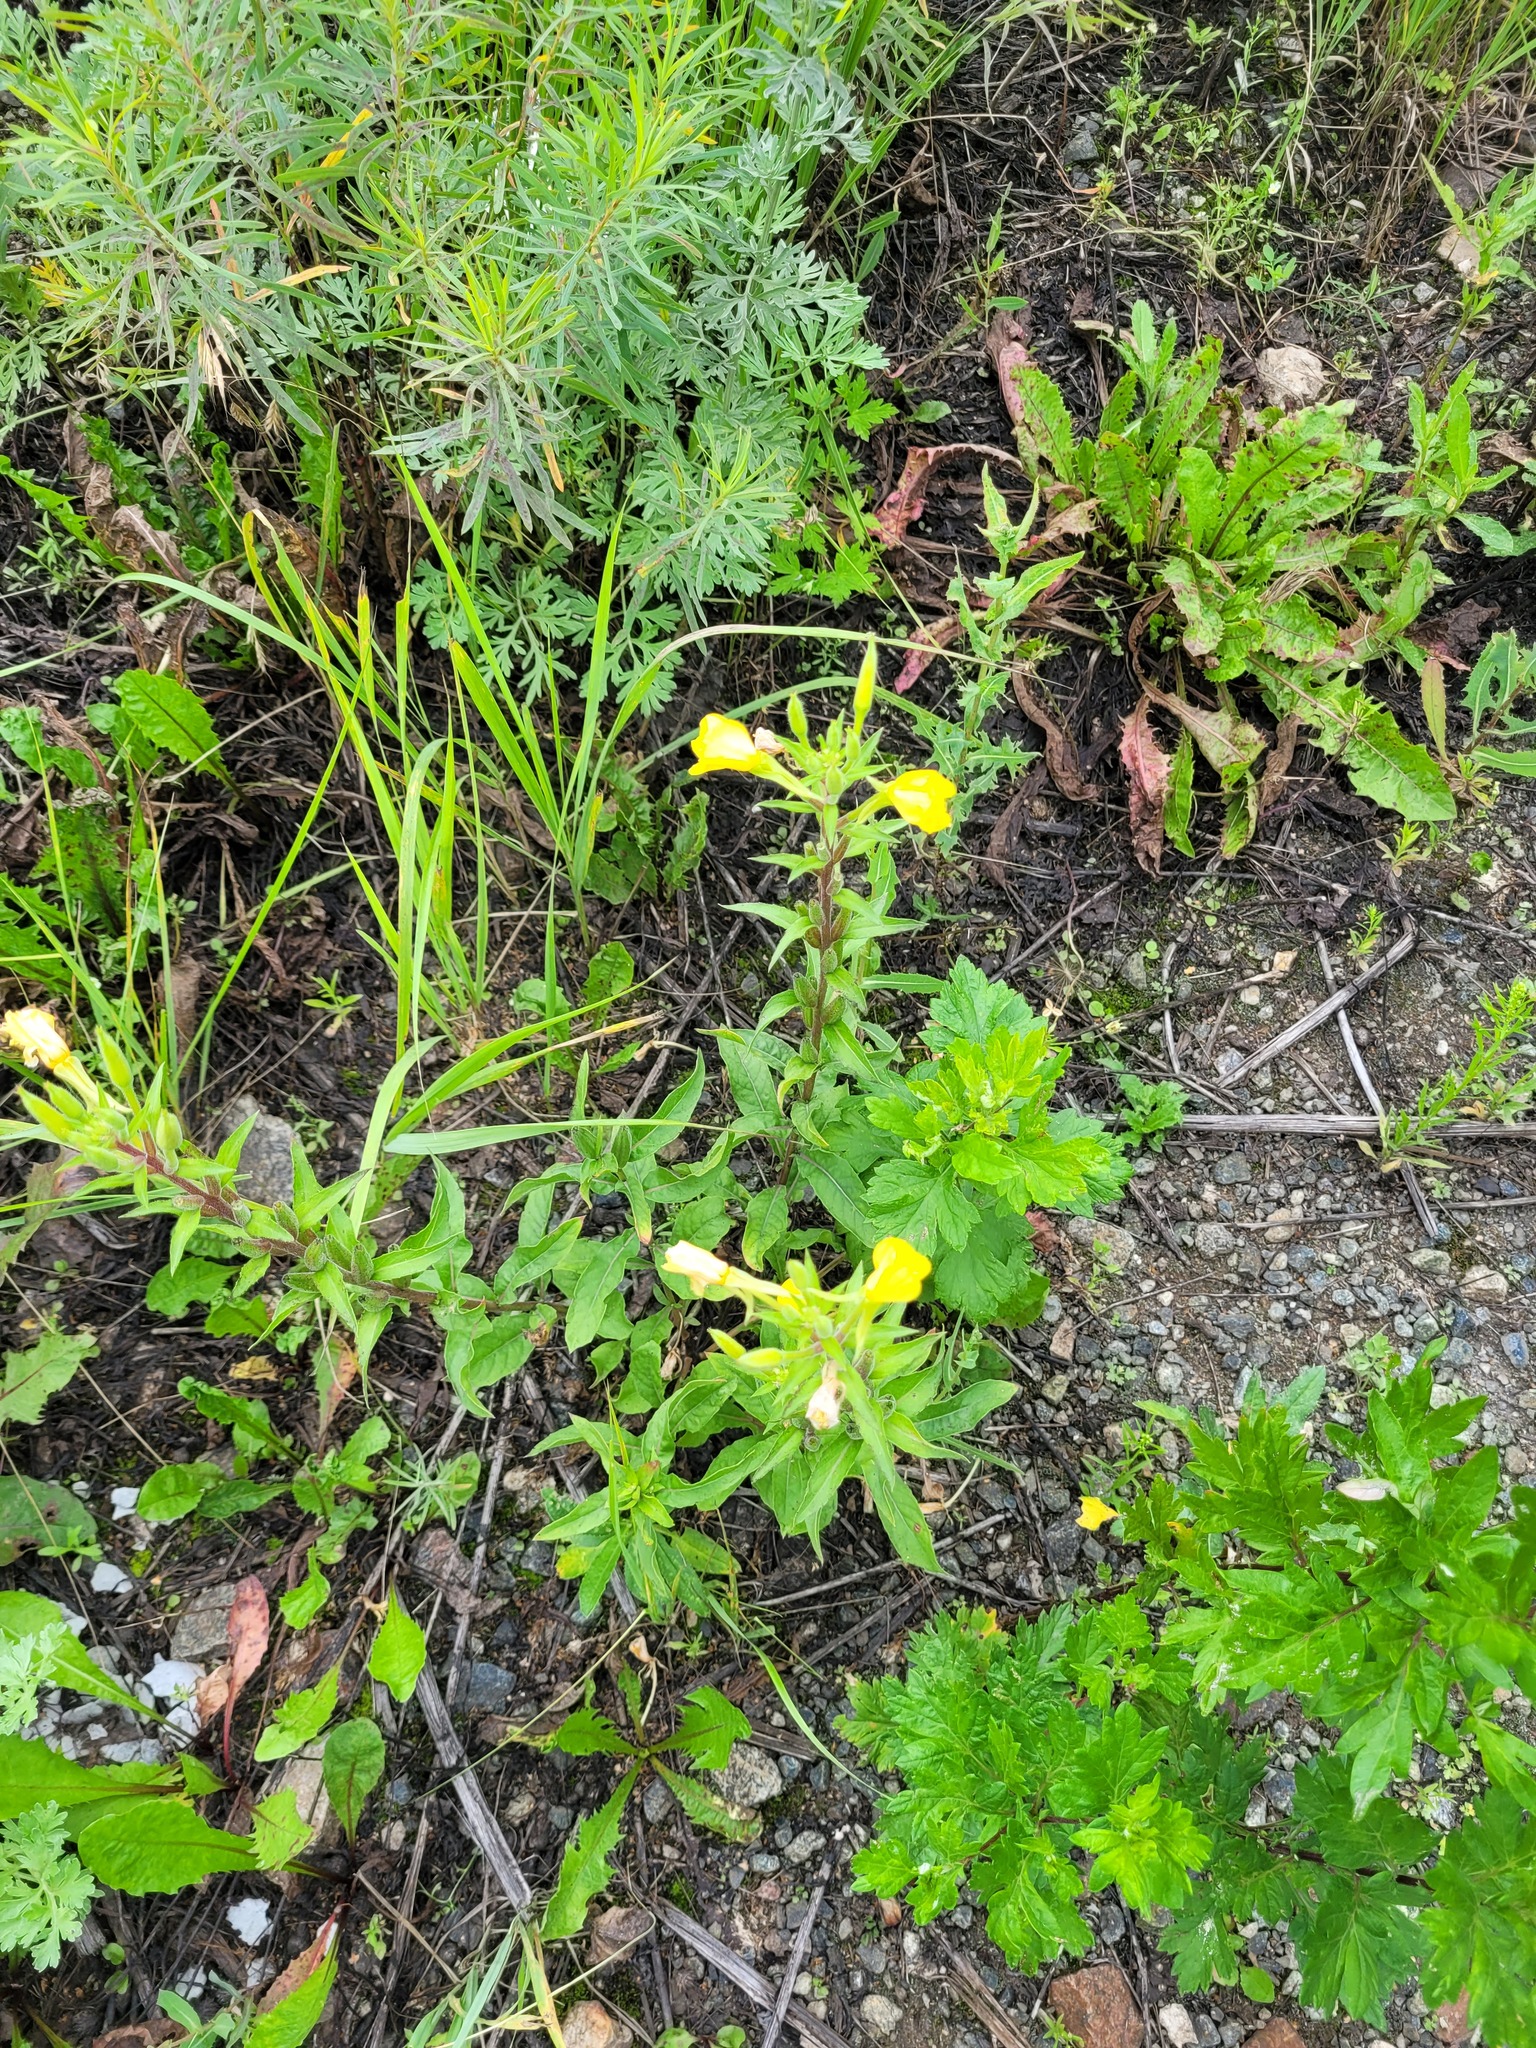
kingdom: Plantae
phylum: Tracheophyta
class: Magnoliopsida
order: Myrtales
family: Onagraceae
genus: Oenothera
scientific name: Oenothera rubricaulis
